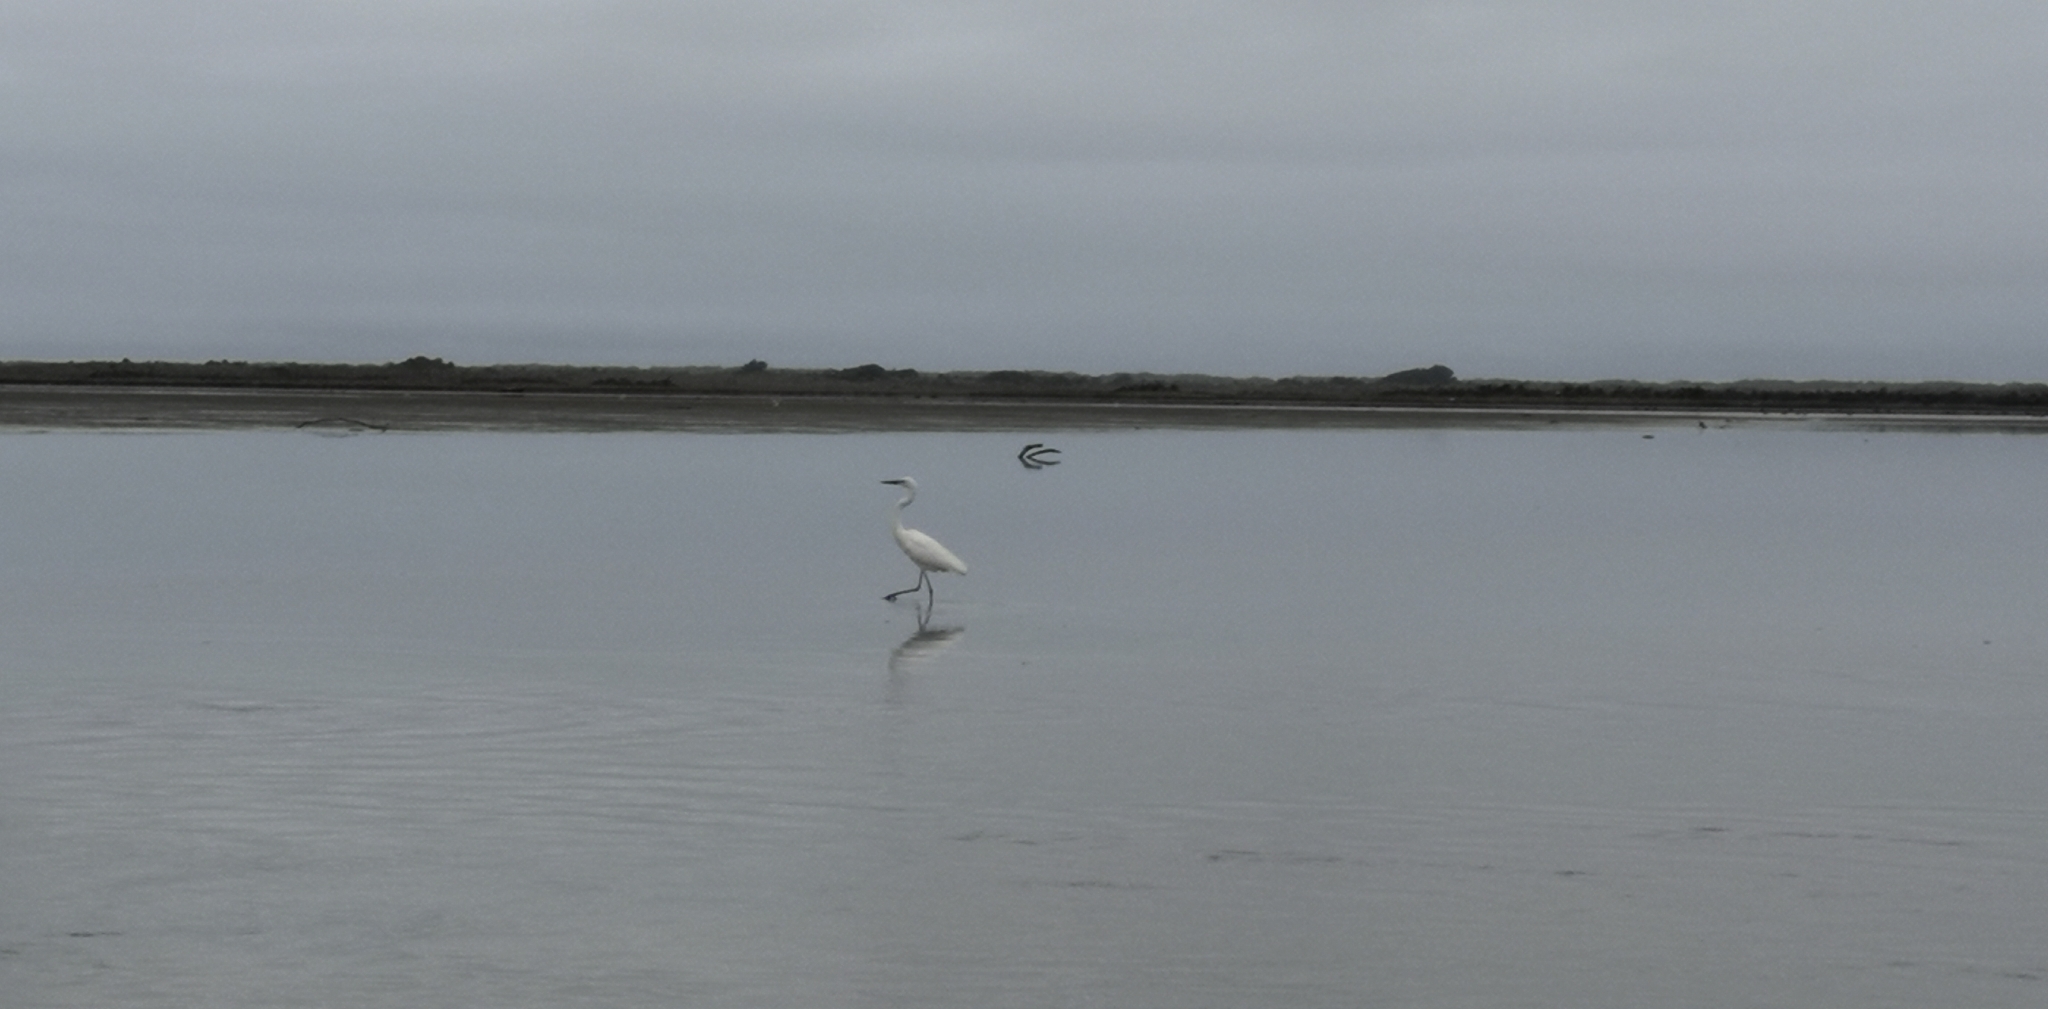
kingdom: Animalia
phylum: Chordata
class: Aves
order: Pelecaniformes
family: Ardeidae
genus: Ardea
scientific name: Ardea modesta
